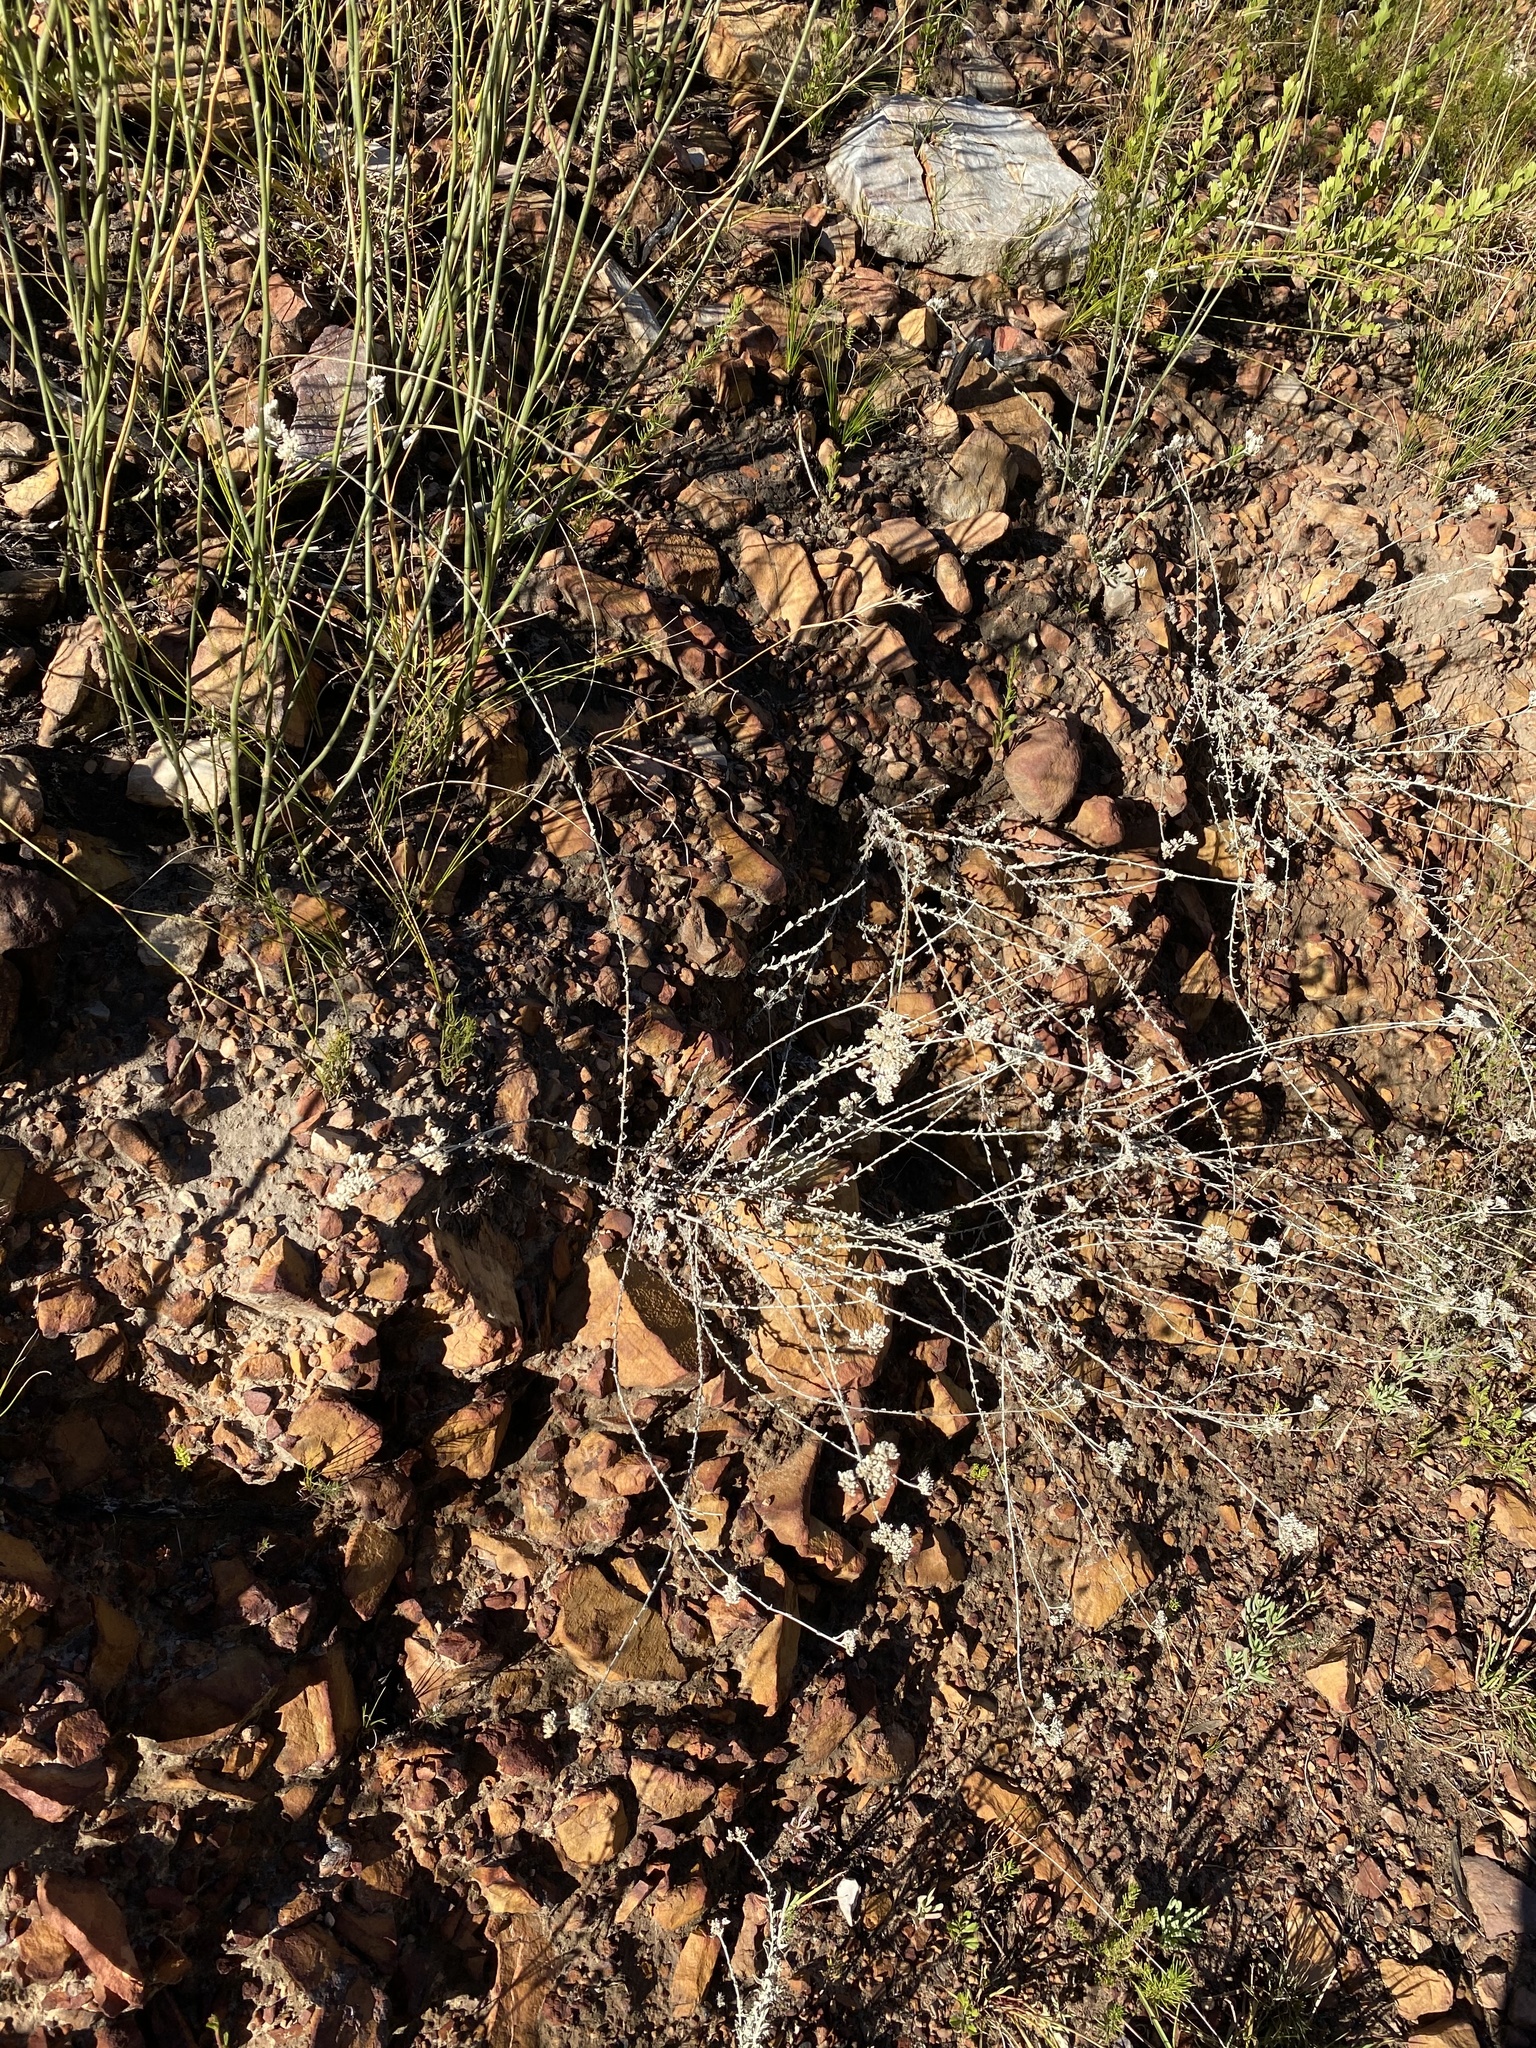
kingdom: Plantae
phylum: Tracheophyta
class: Magnoliopsida
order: Asterales
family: Asteraceae
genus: Helichrysum
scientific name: Helichrysum zeyheri
